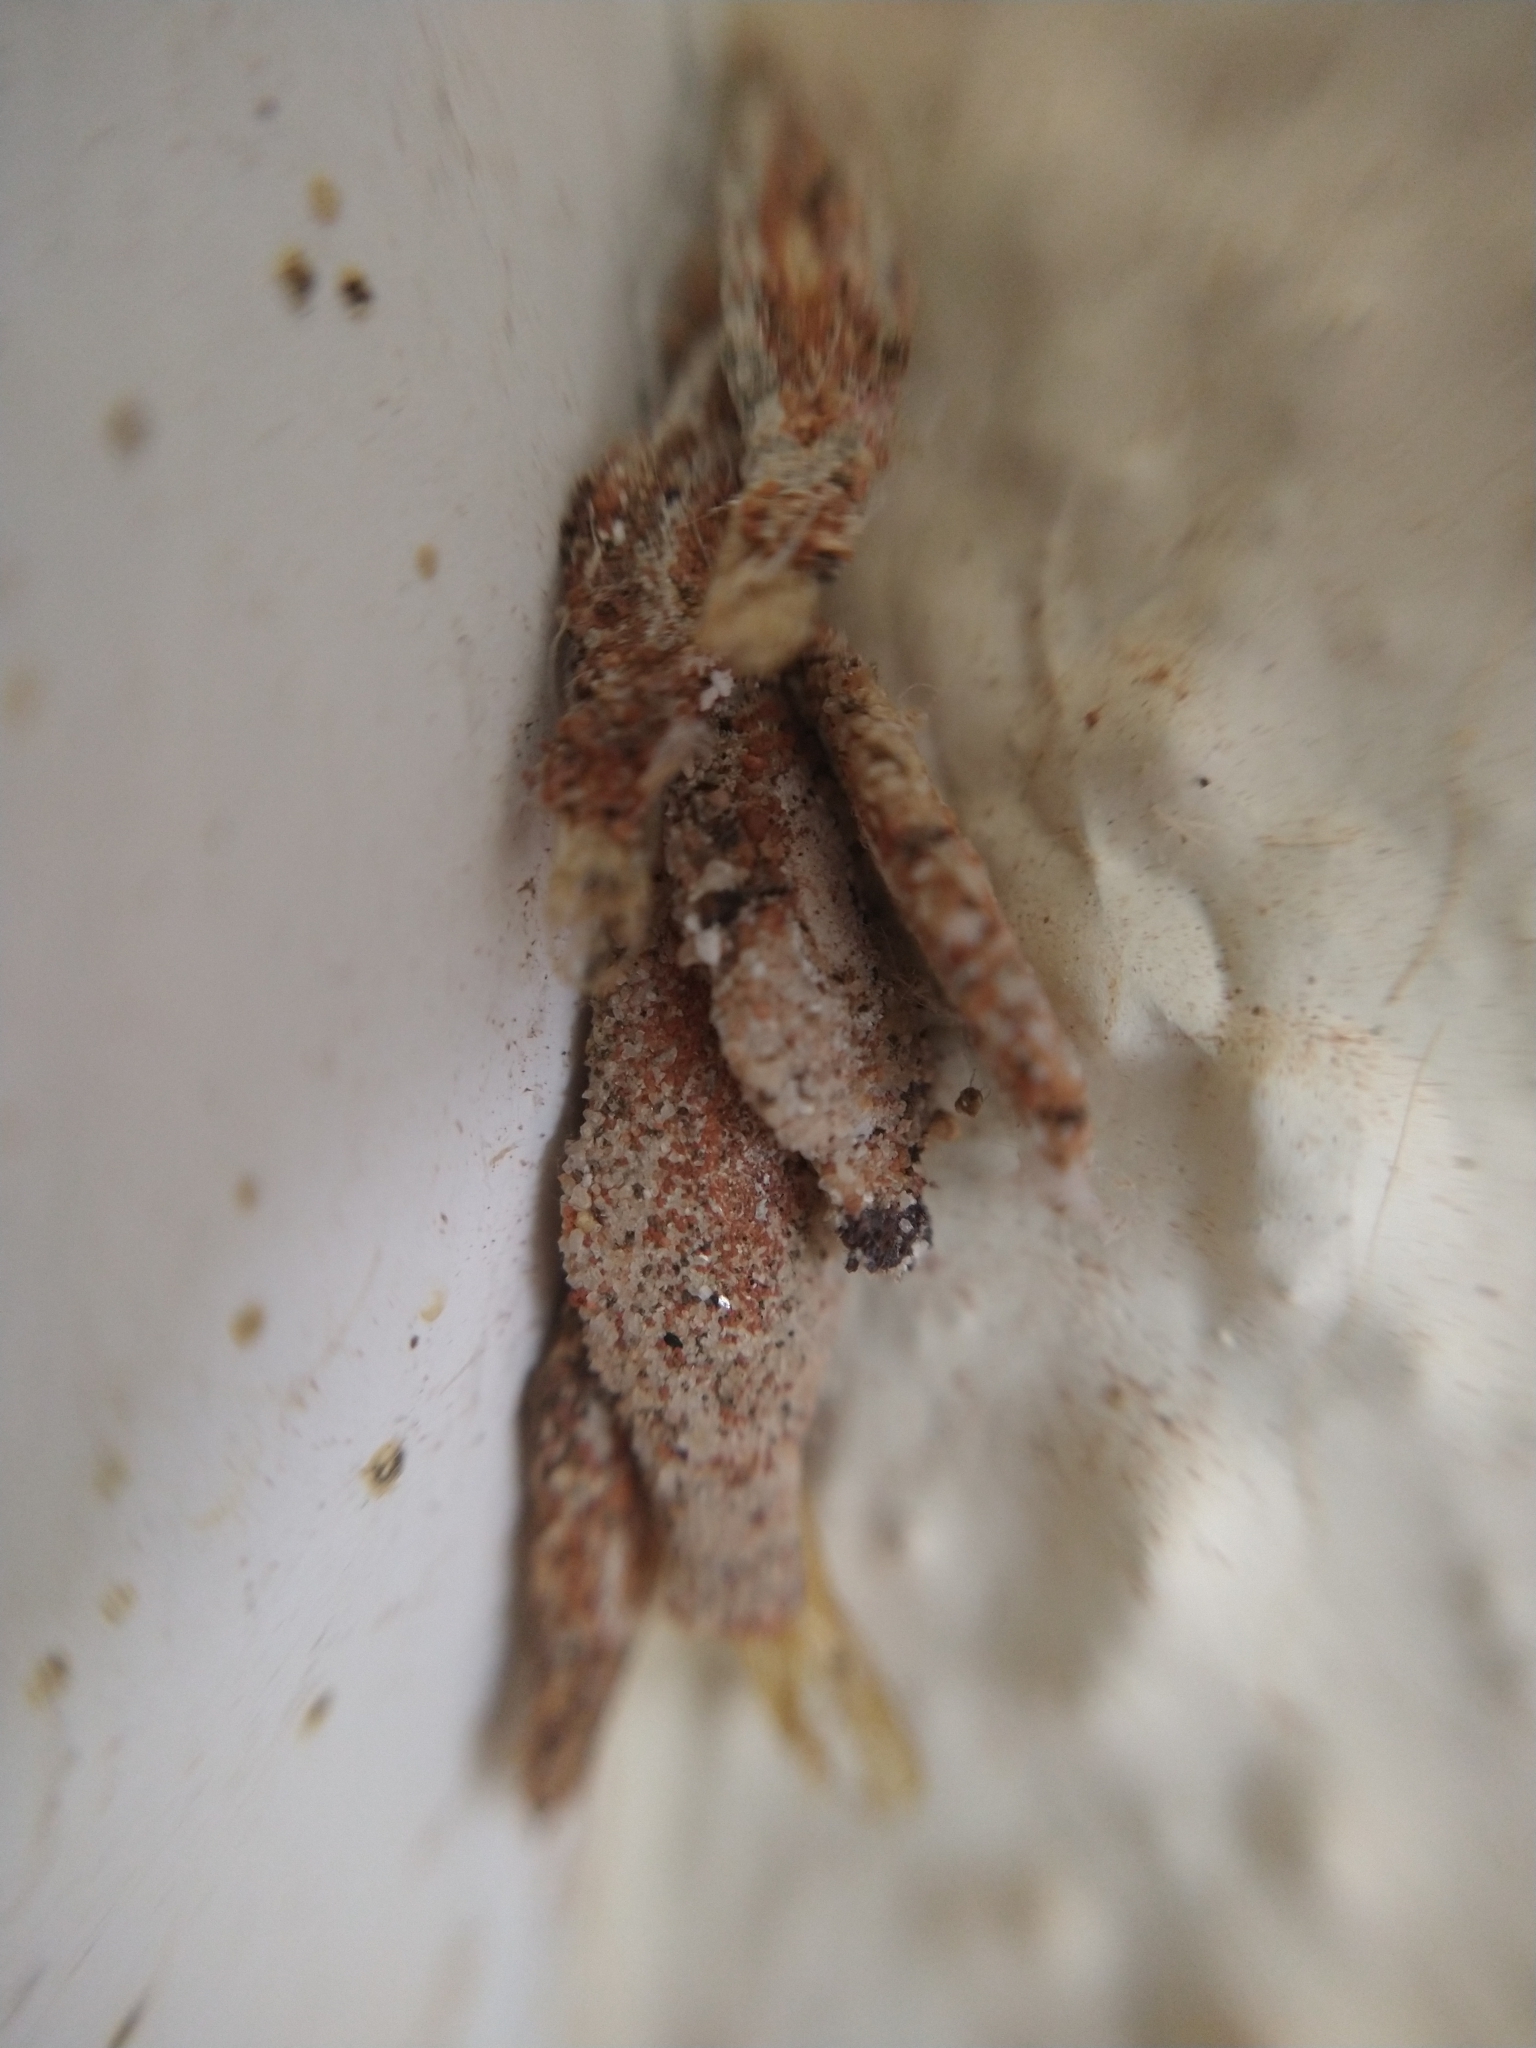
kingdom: Animalia
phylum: Arthropoda
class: Insecta
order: Lepidoptera
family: Tineidae
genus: Phereoeca
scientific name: Phereoeca uterella
